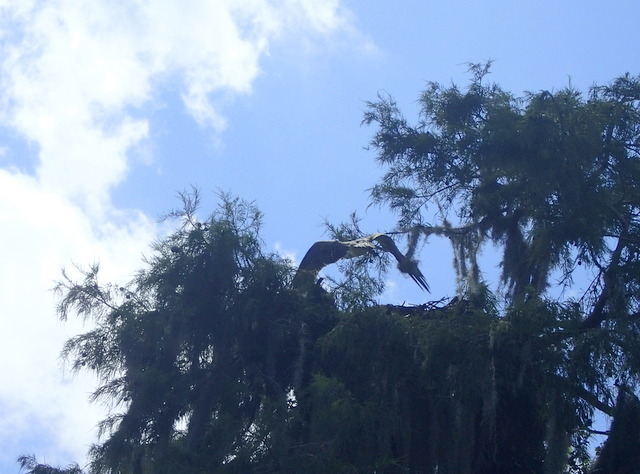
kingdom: Animalia
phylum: Chordata
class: Aves
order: Accipitriformes
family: Pandionidae
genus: Pandion
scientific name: Pandion haliaetus
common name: Osprey
